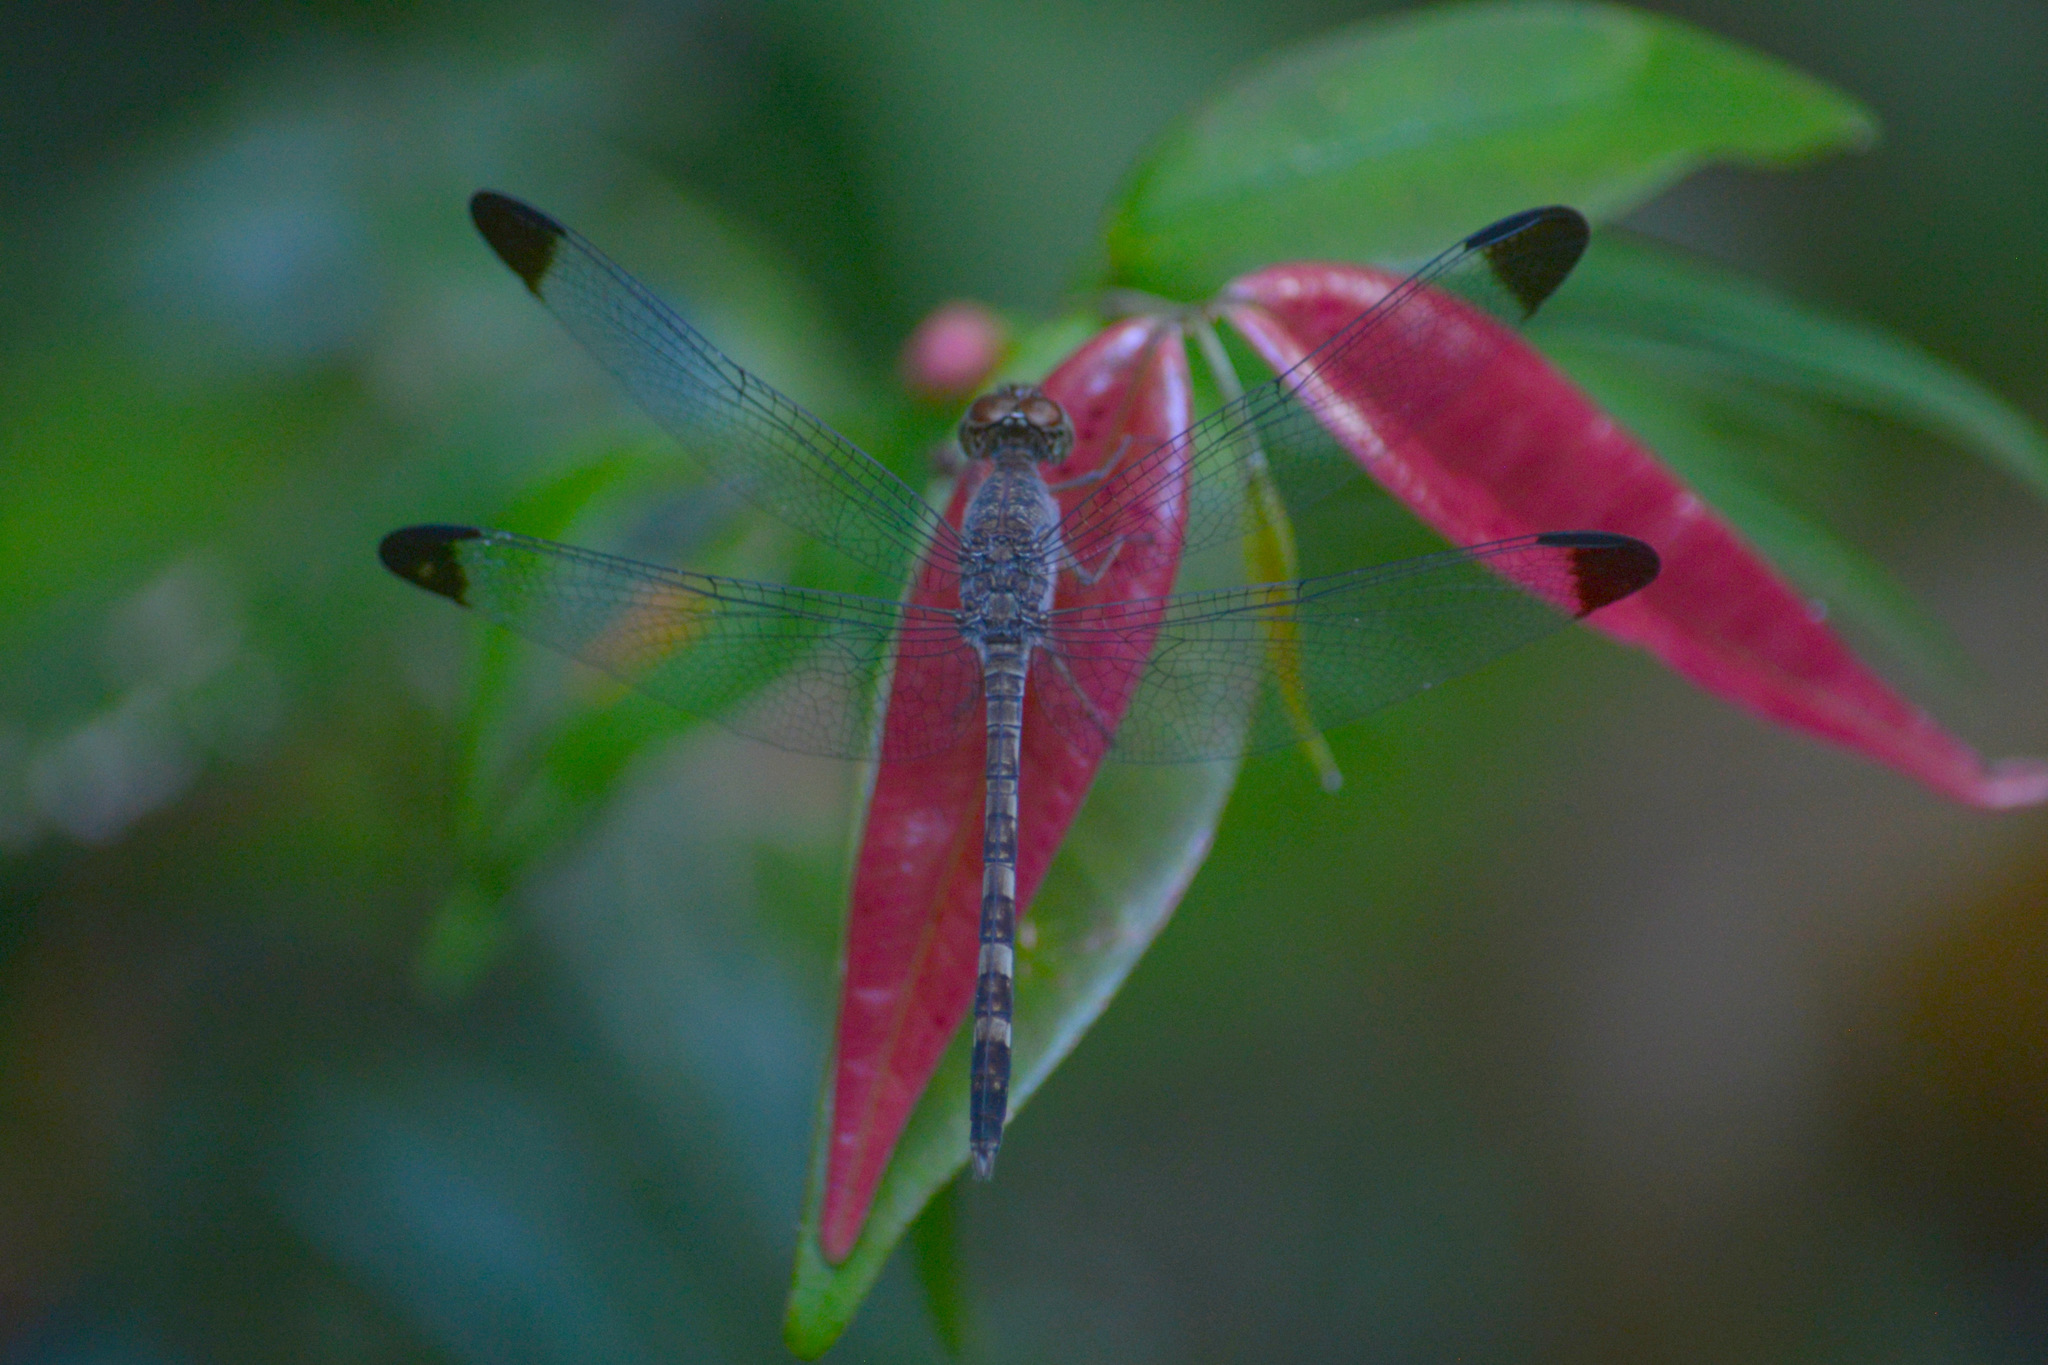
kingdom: Animalia
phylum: Arthropoda
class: Insecta
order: Odonata
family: Libellulidae
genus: Uracis
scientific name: Uracis imbuta
